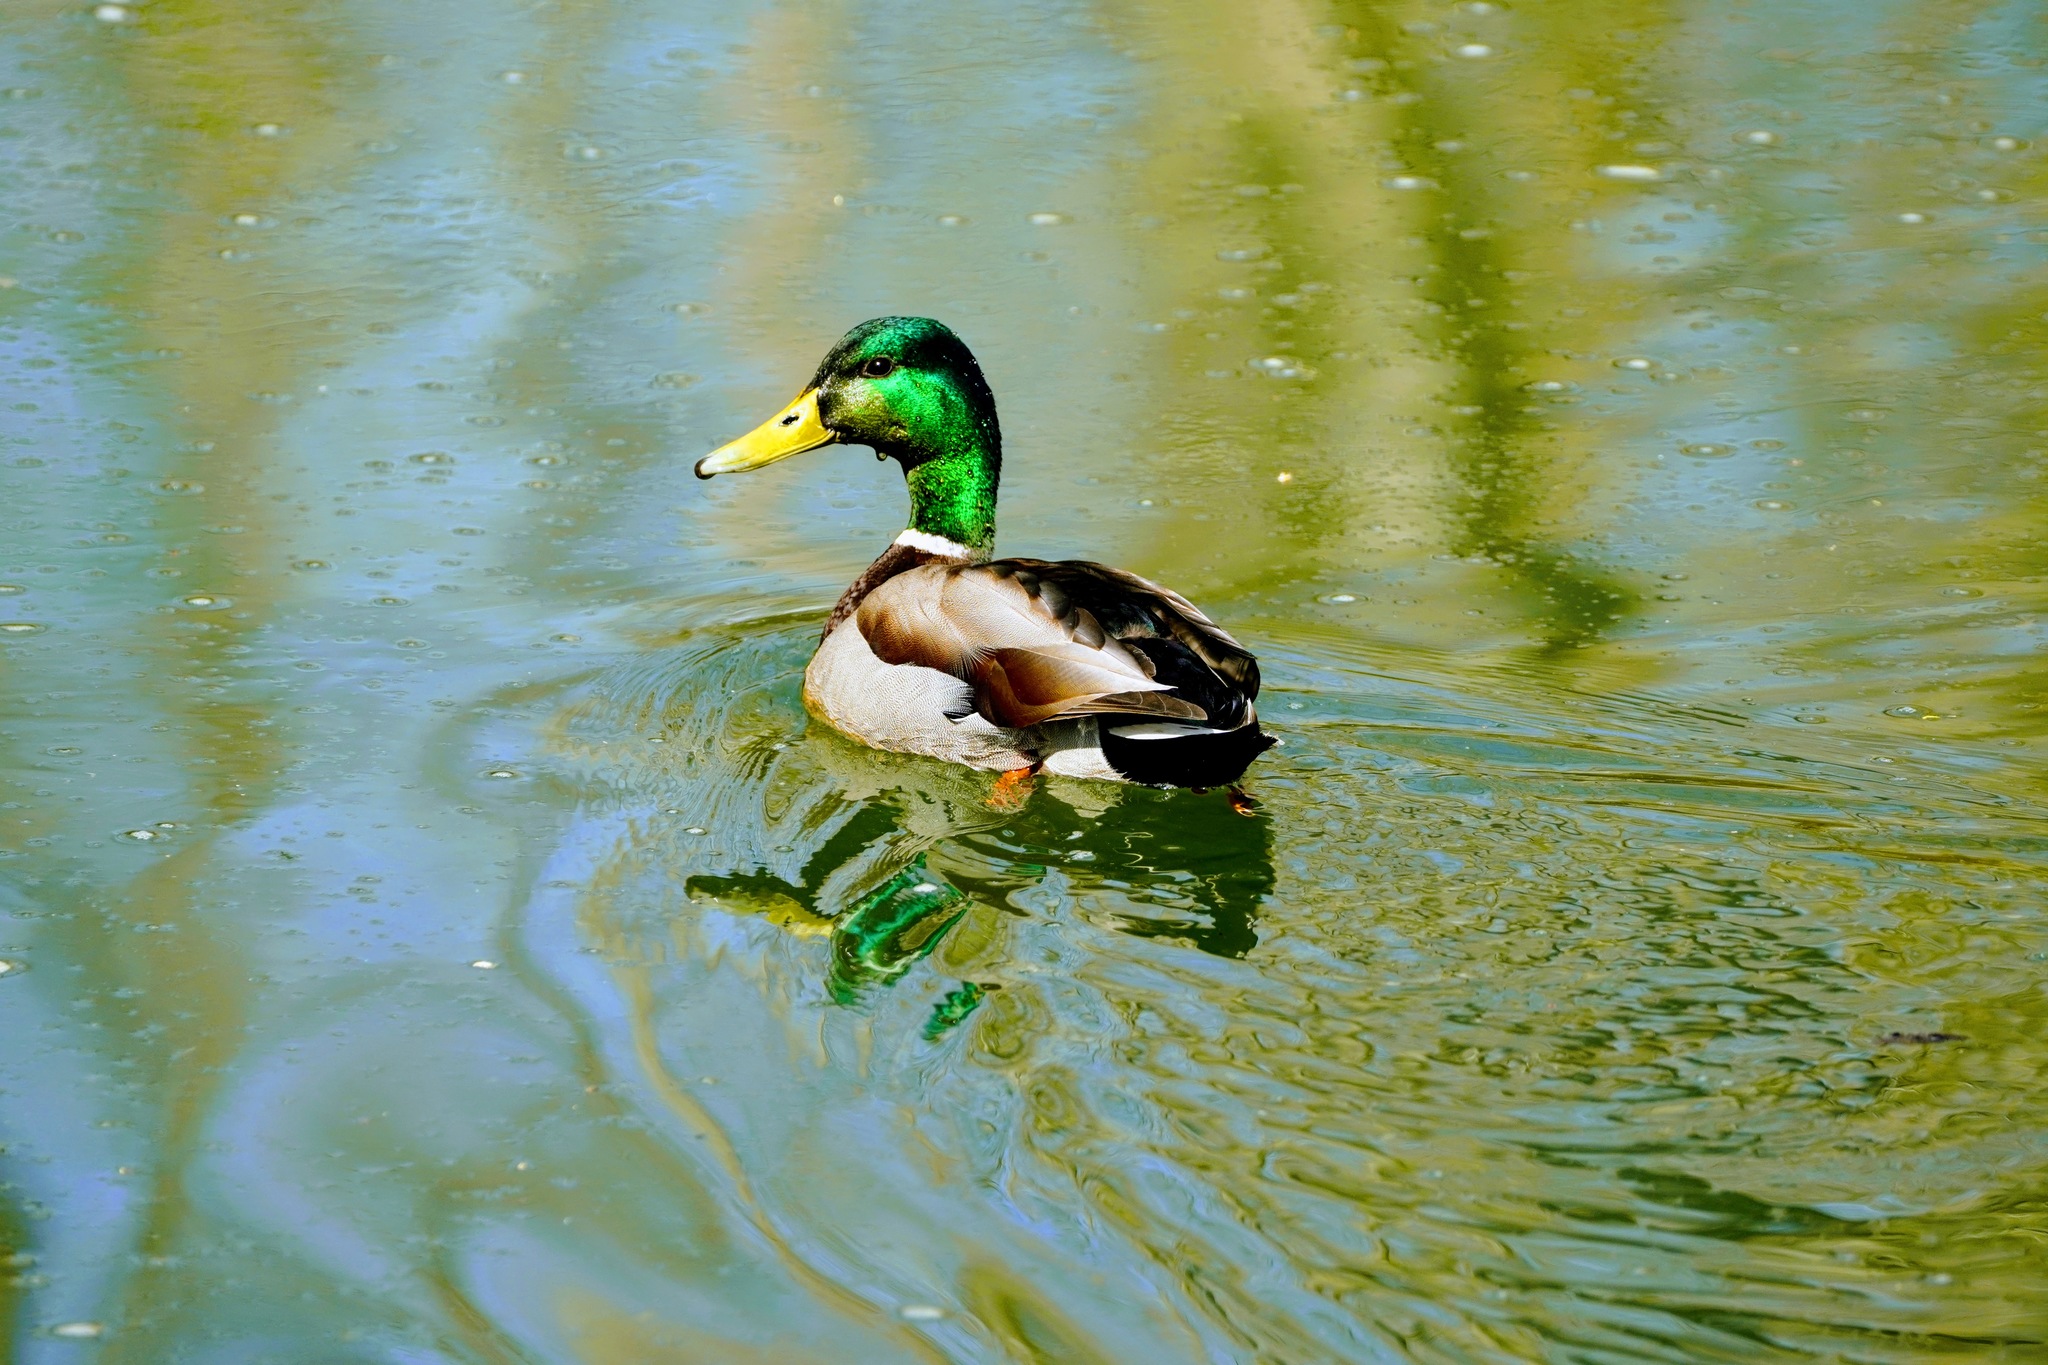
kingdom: Animalia
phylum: Chordata
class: Aves
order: Anseriformes
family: Anatidae
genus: Anas
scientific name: Anas platyrhynchos
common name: Mallard
